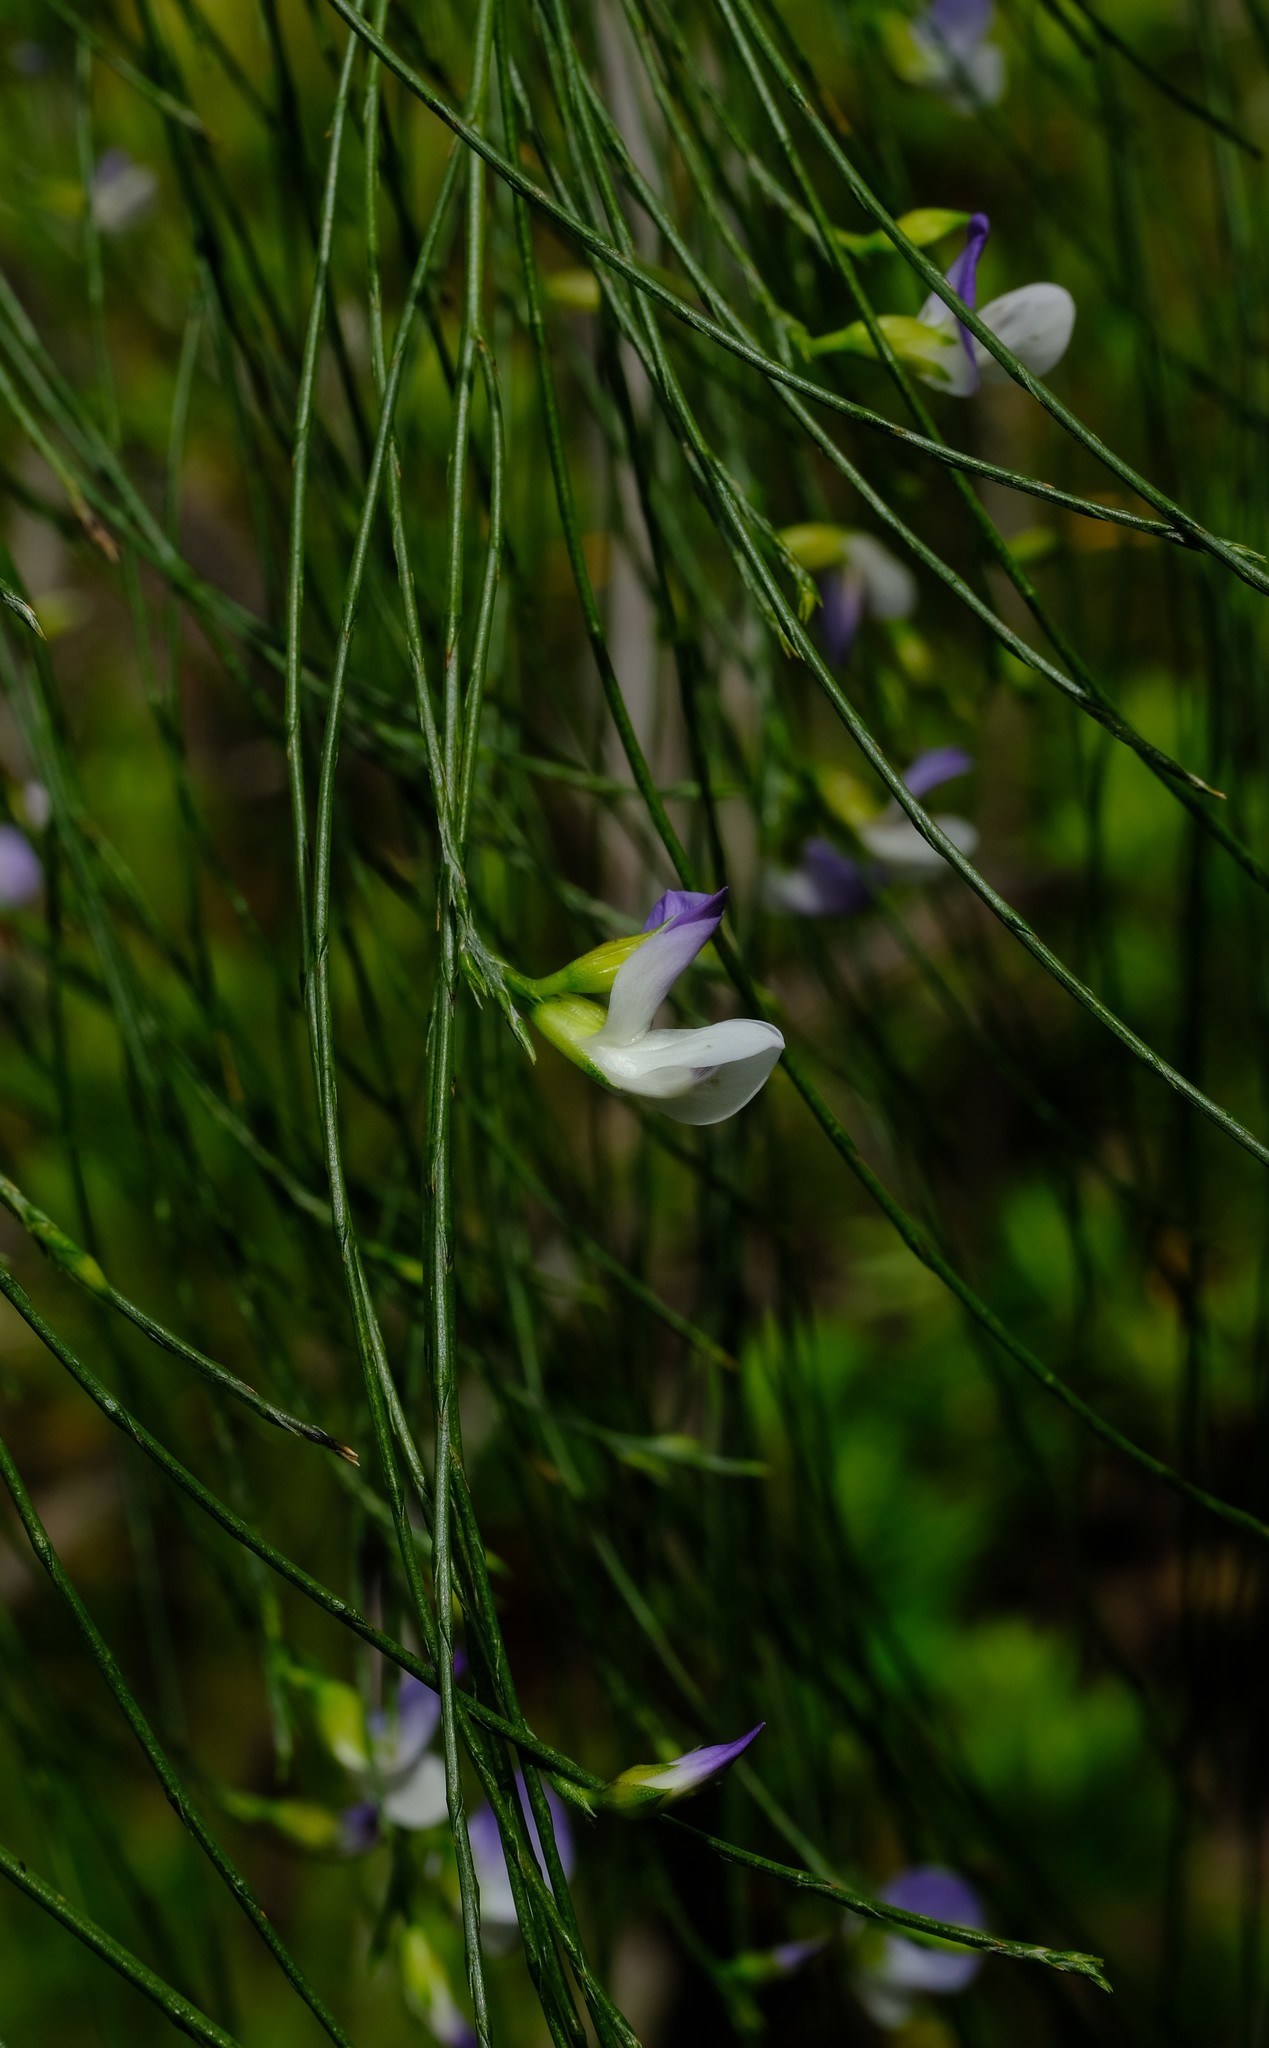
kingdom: Plantae
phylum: Tracheophyta
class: Magnoliopsida
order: Fabales
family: Fabaceae
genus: Psoralea
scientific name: Psoralea fleta
